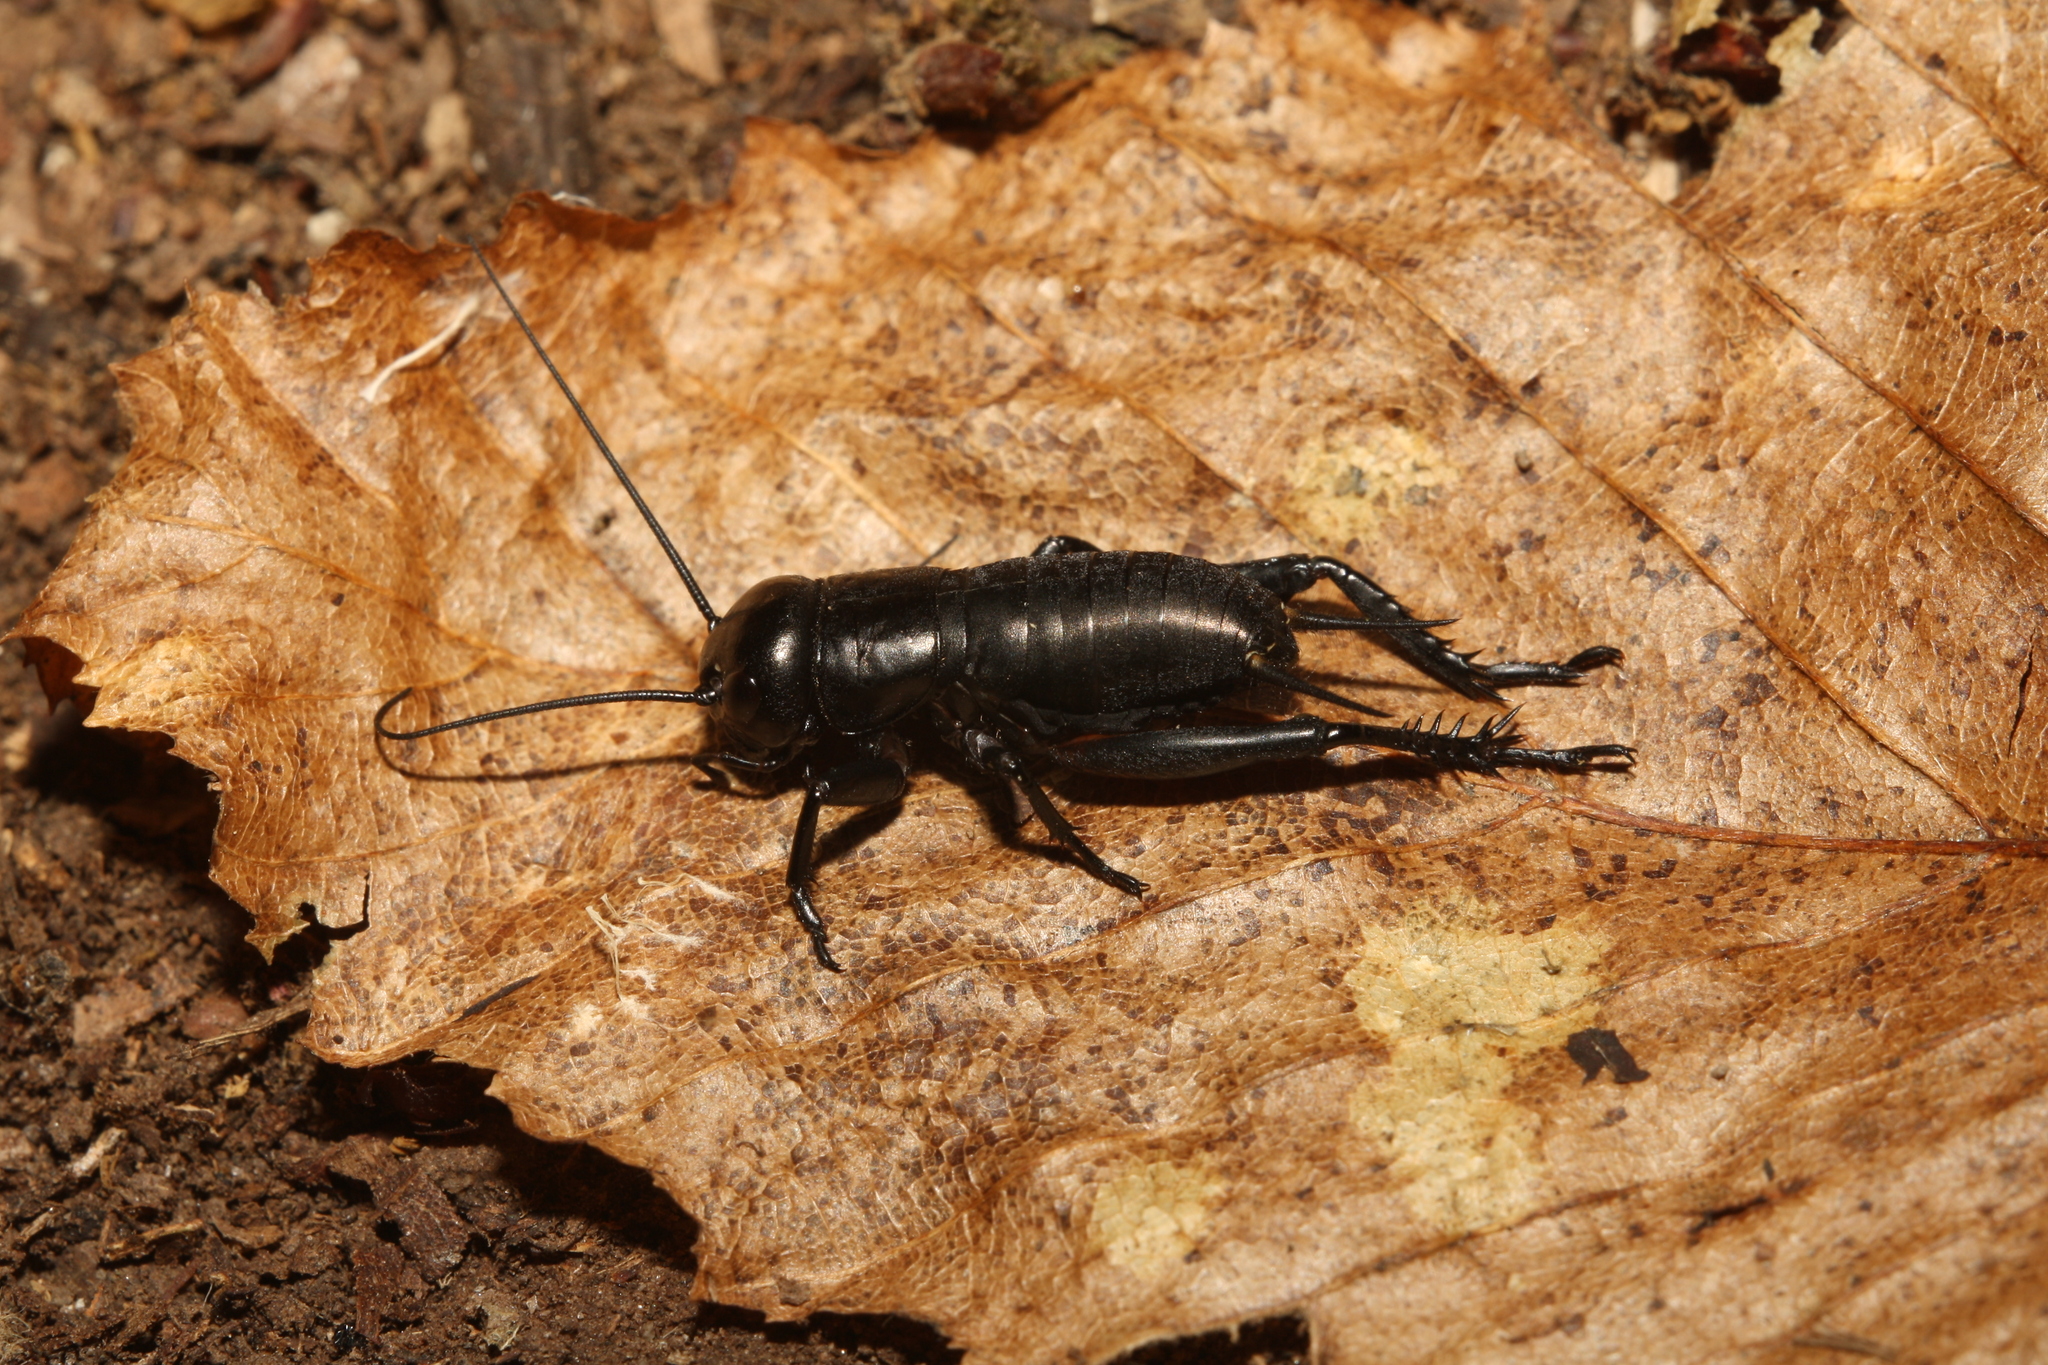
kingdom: Animalia
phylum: Arthropoda
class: Insecta
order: Orthoptera
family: Gryllidae
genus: Gryllus
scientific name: Gryllus campestris
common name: Field cricket
